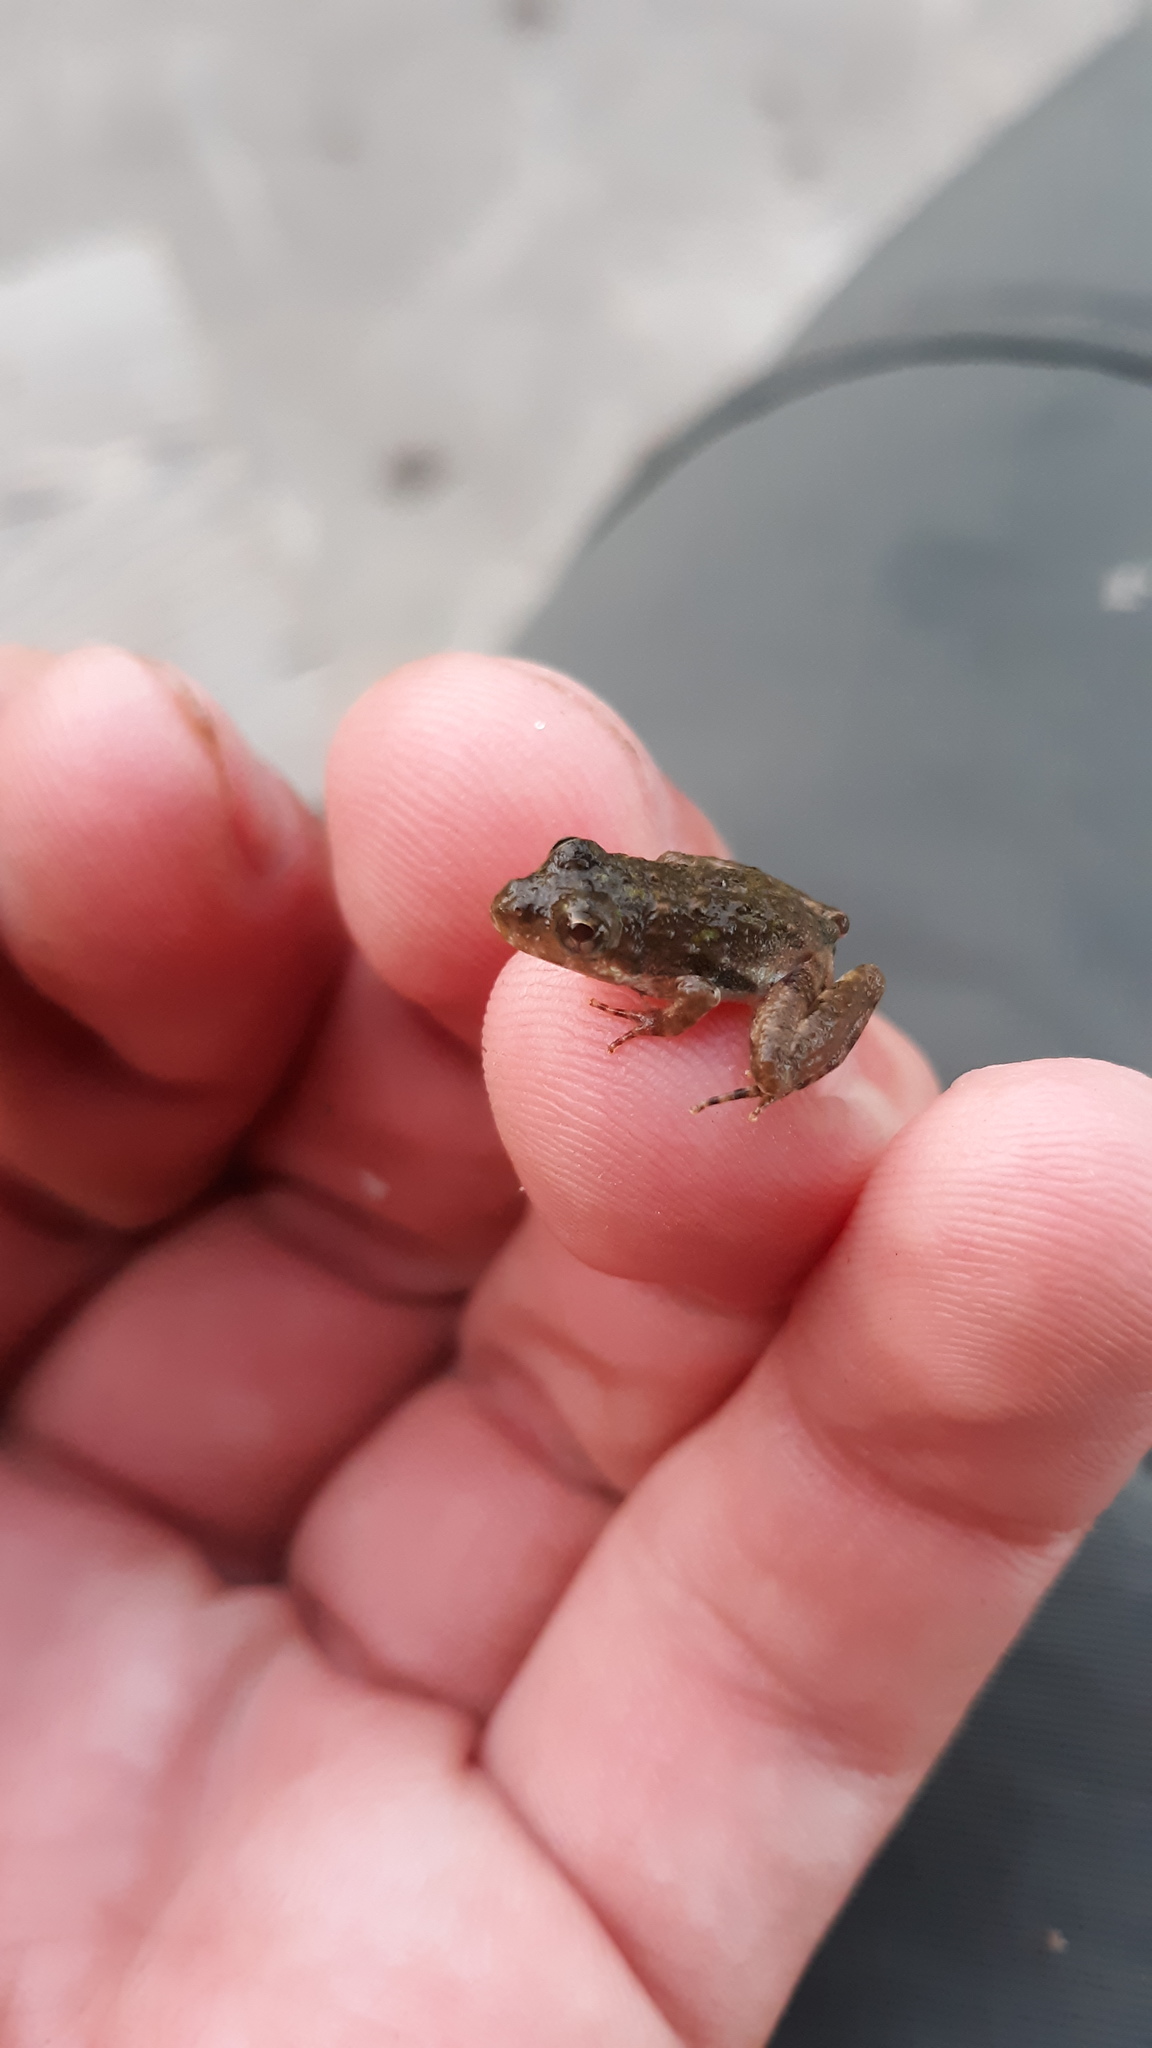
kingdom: Animalia
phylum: Chordata
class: Amphibia
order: Anura
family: Hylidae
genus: Acris
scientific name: Acris blanchardi
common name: Blanchard's cricket frog
